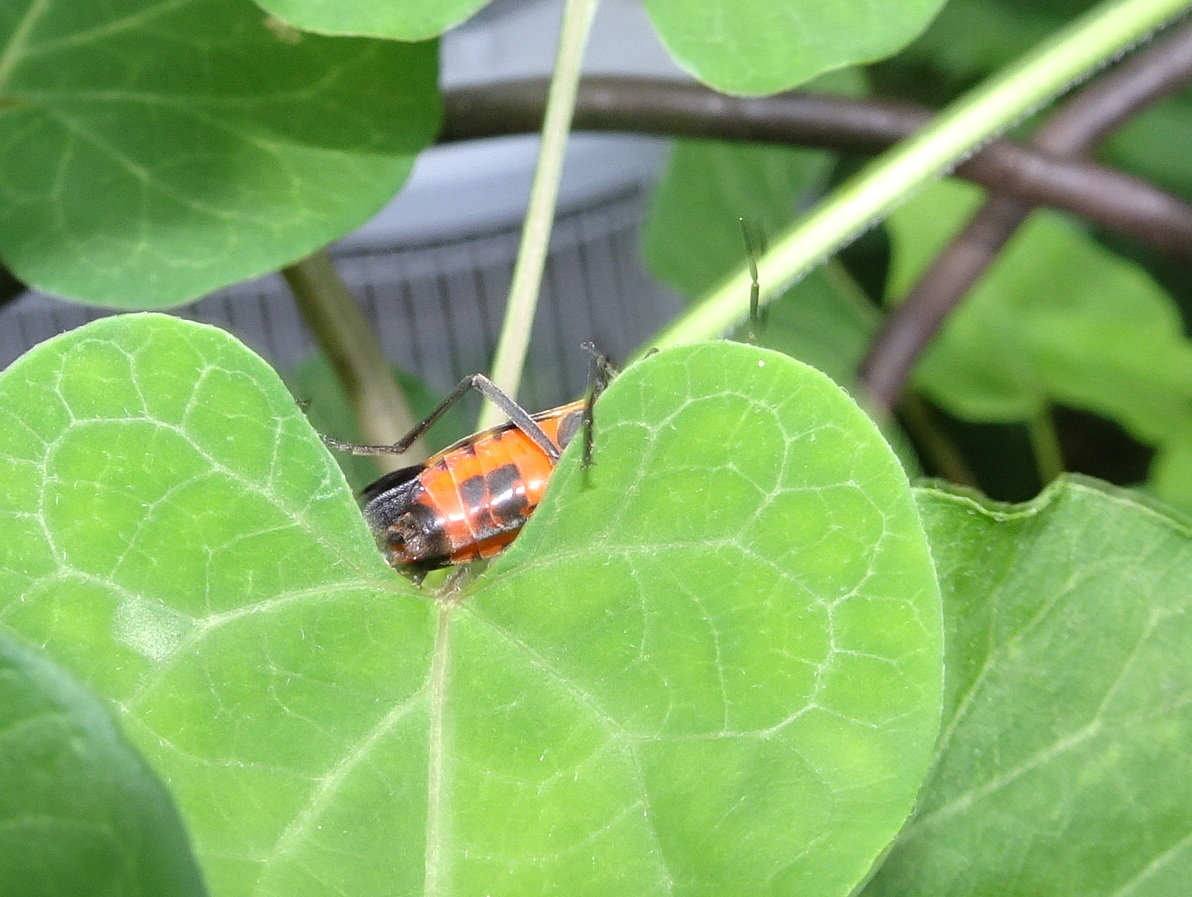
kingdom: Animalia
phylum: Arthropoda
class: Insecta
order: Hemiptera
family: Lygaeidae
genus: Oncopeltus
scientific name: Oncopeltus fasciatus
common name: Large milkweed bug
